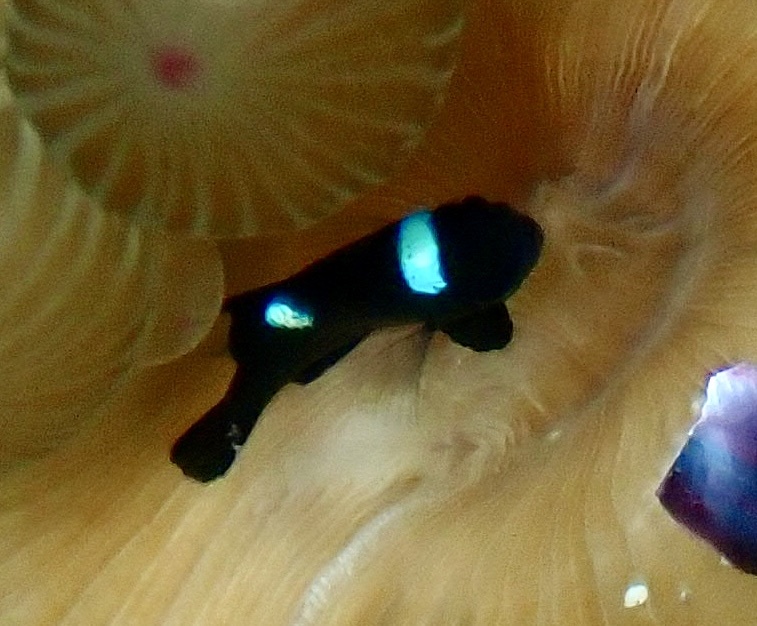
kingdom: Animalia
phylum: Chordata
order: Perciformes
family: Pomacentridae
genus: Dascyllus
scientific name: Dascyllus trimaculatus
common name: Threespot dascyllus
